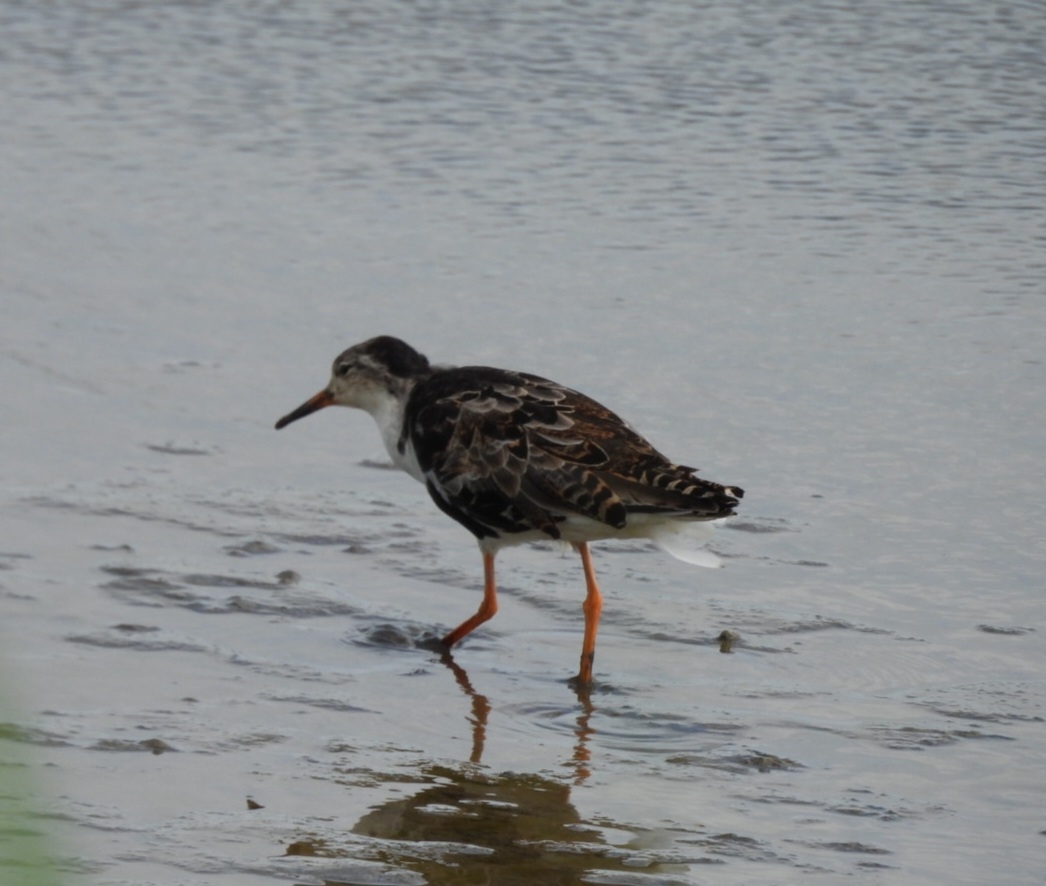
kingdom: Animalia
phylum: Chordata
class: Aves
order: Charadriiformes
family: Scolopacidae
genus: Calidris
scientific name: Calidris pugnax
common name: Ruff
